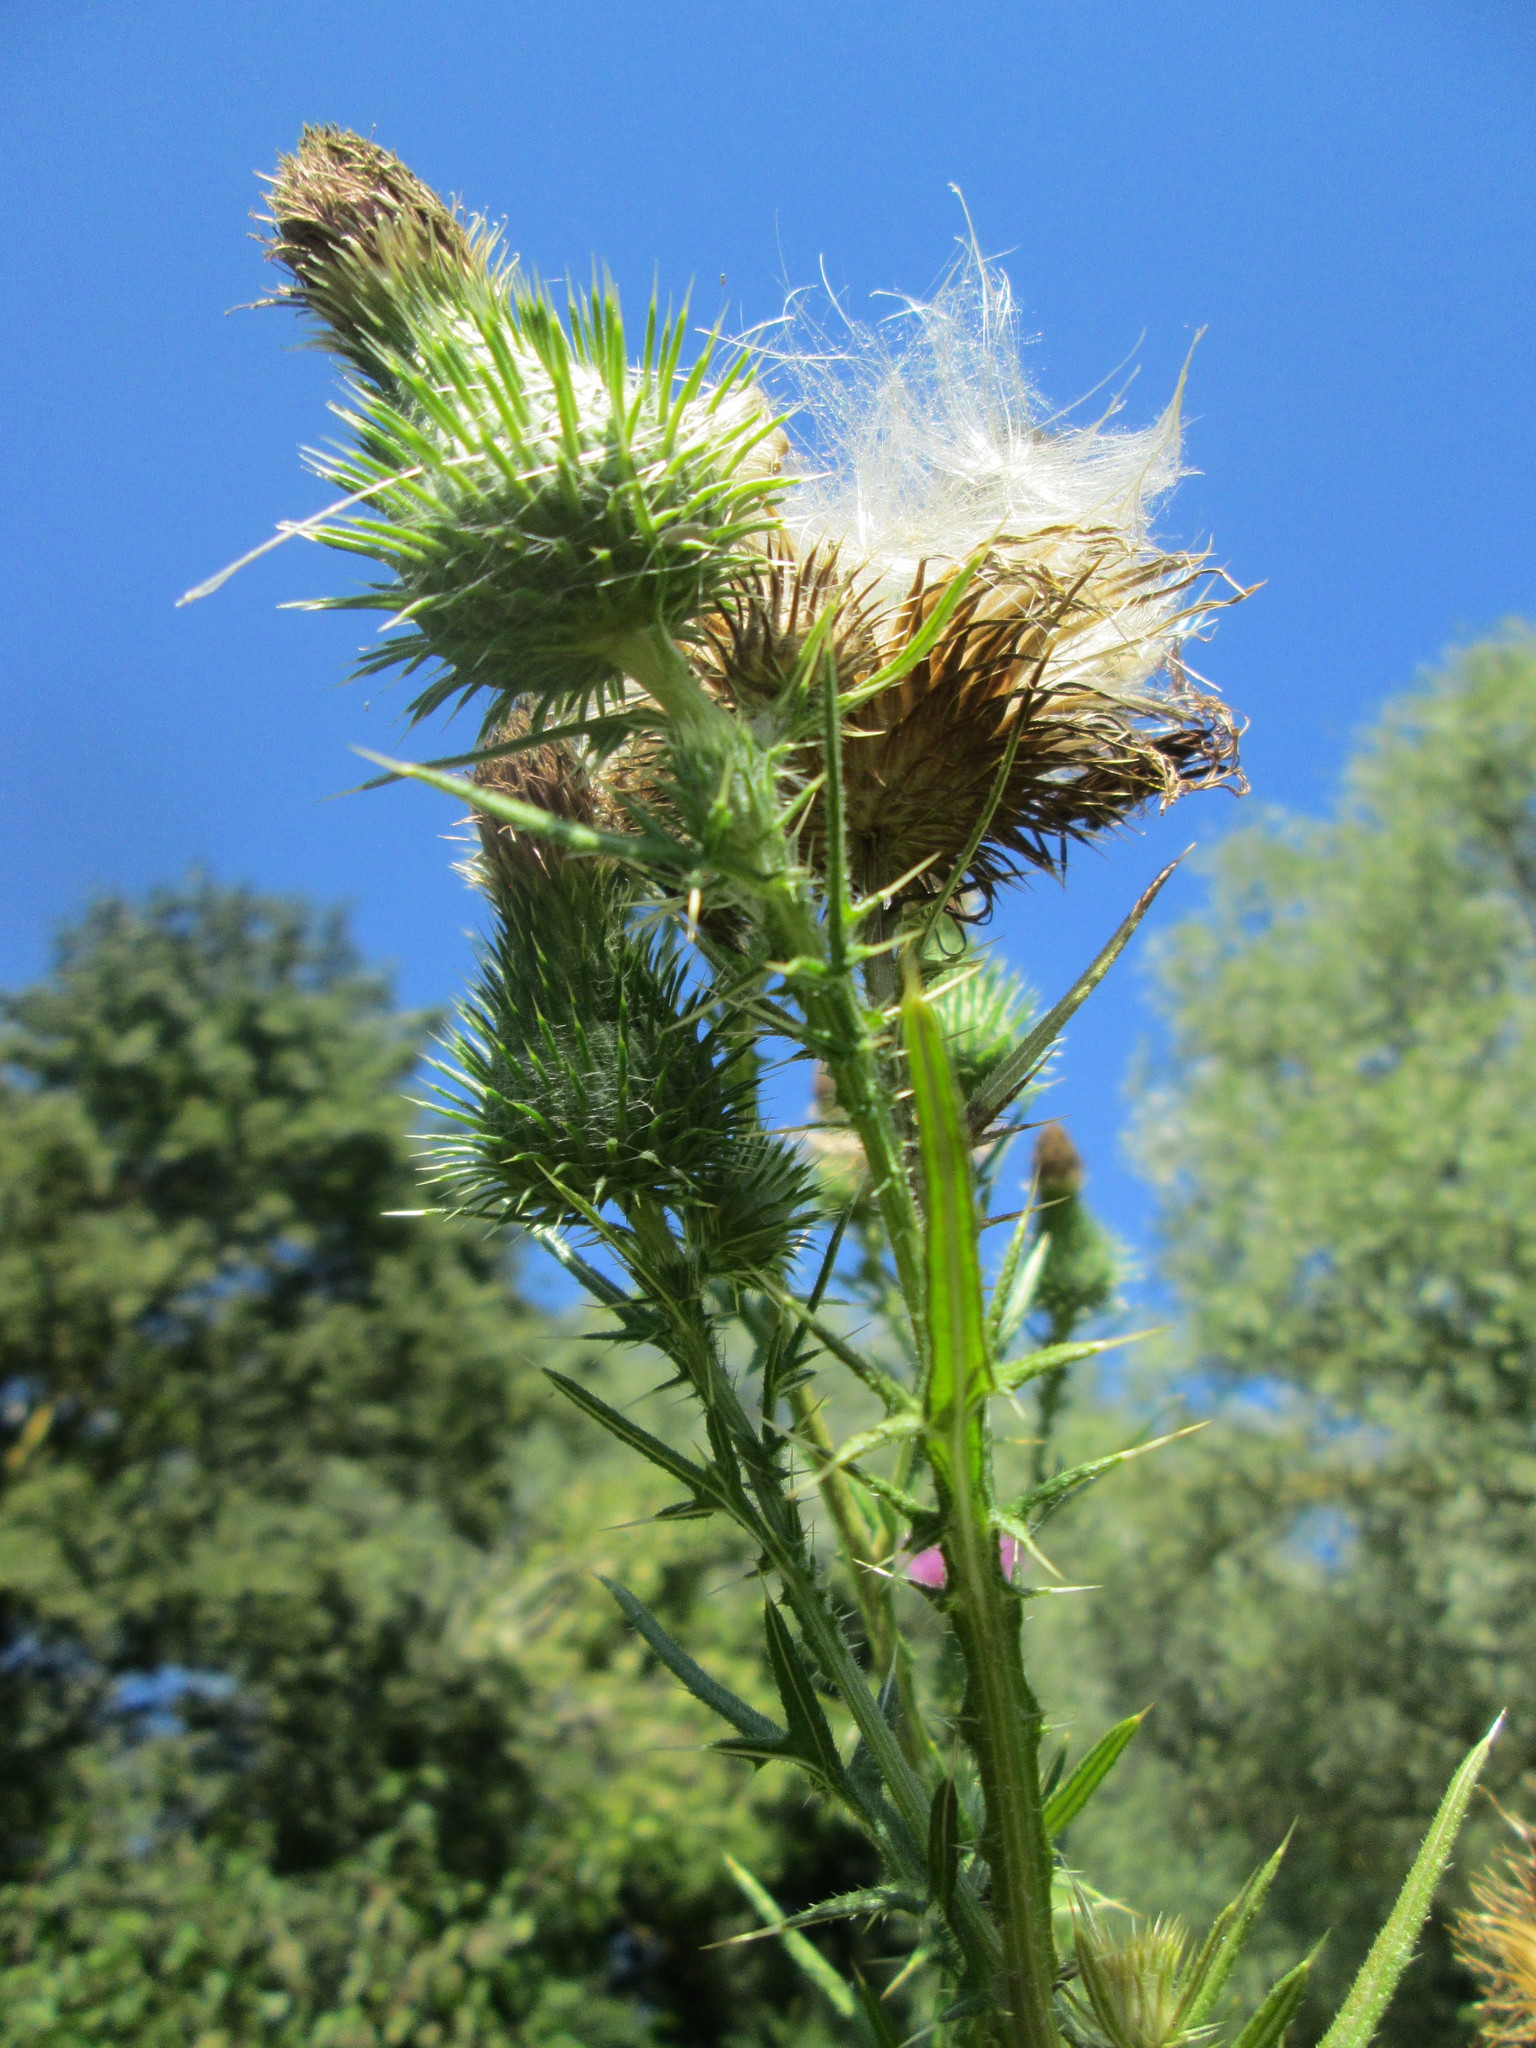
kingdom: Plantae
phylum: Tracheophyta
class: Magnoliopsida
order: Asterales
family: Asteraceae
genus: Cirsium
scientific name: Cirsium vulgare
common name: Bull thistle
